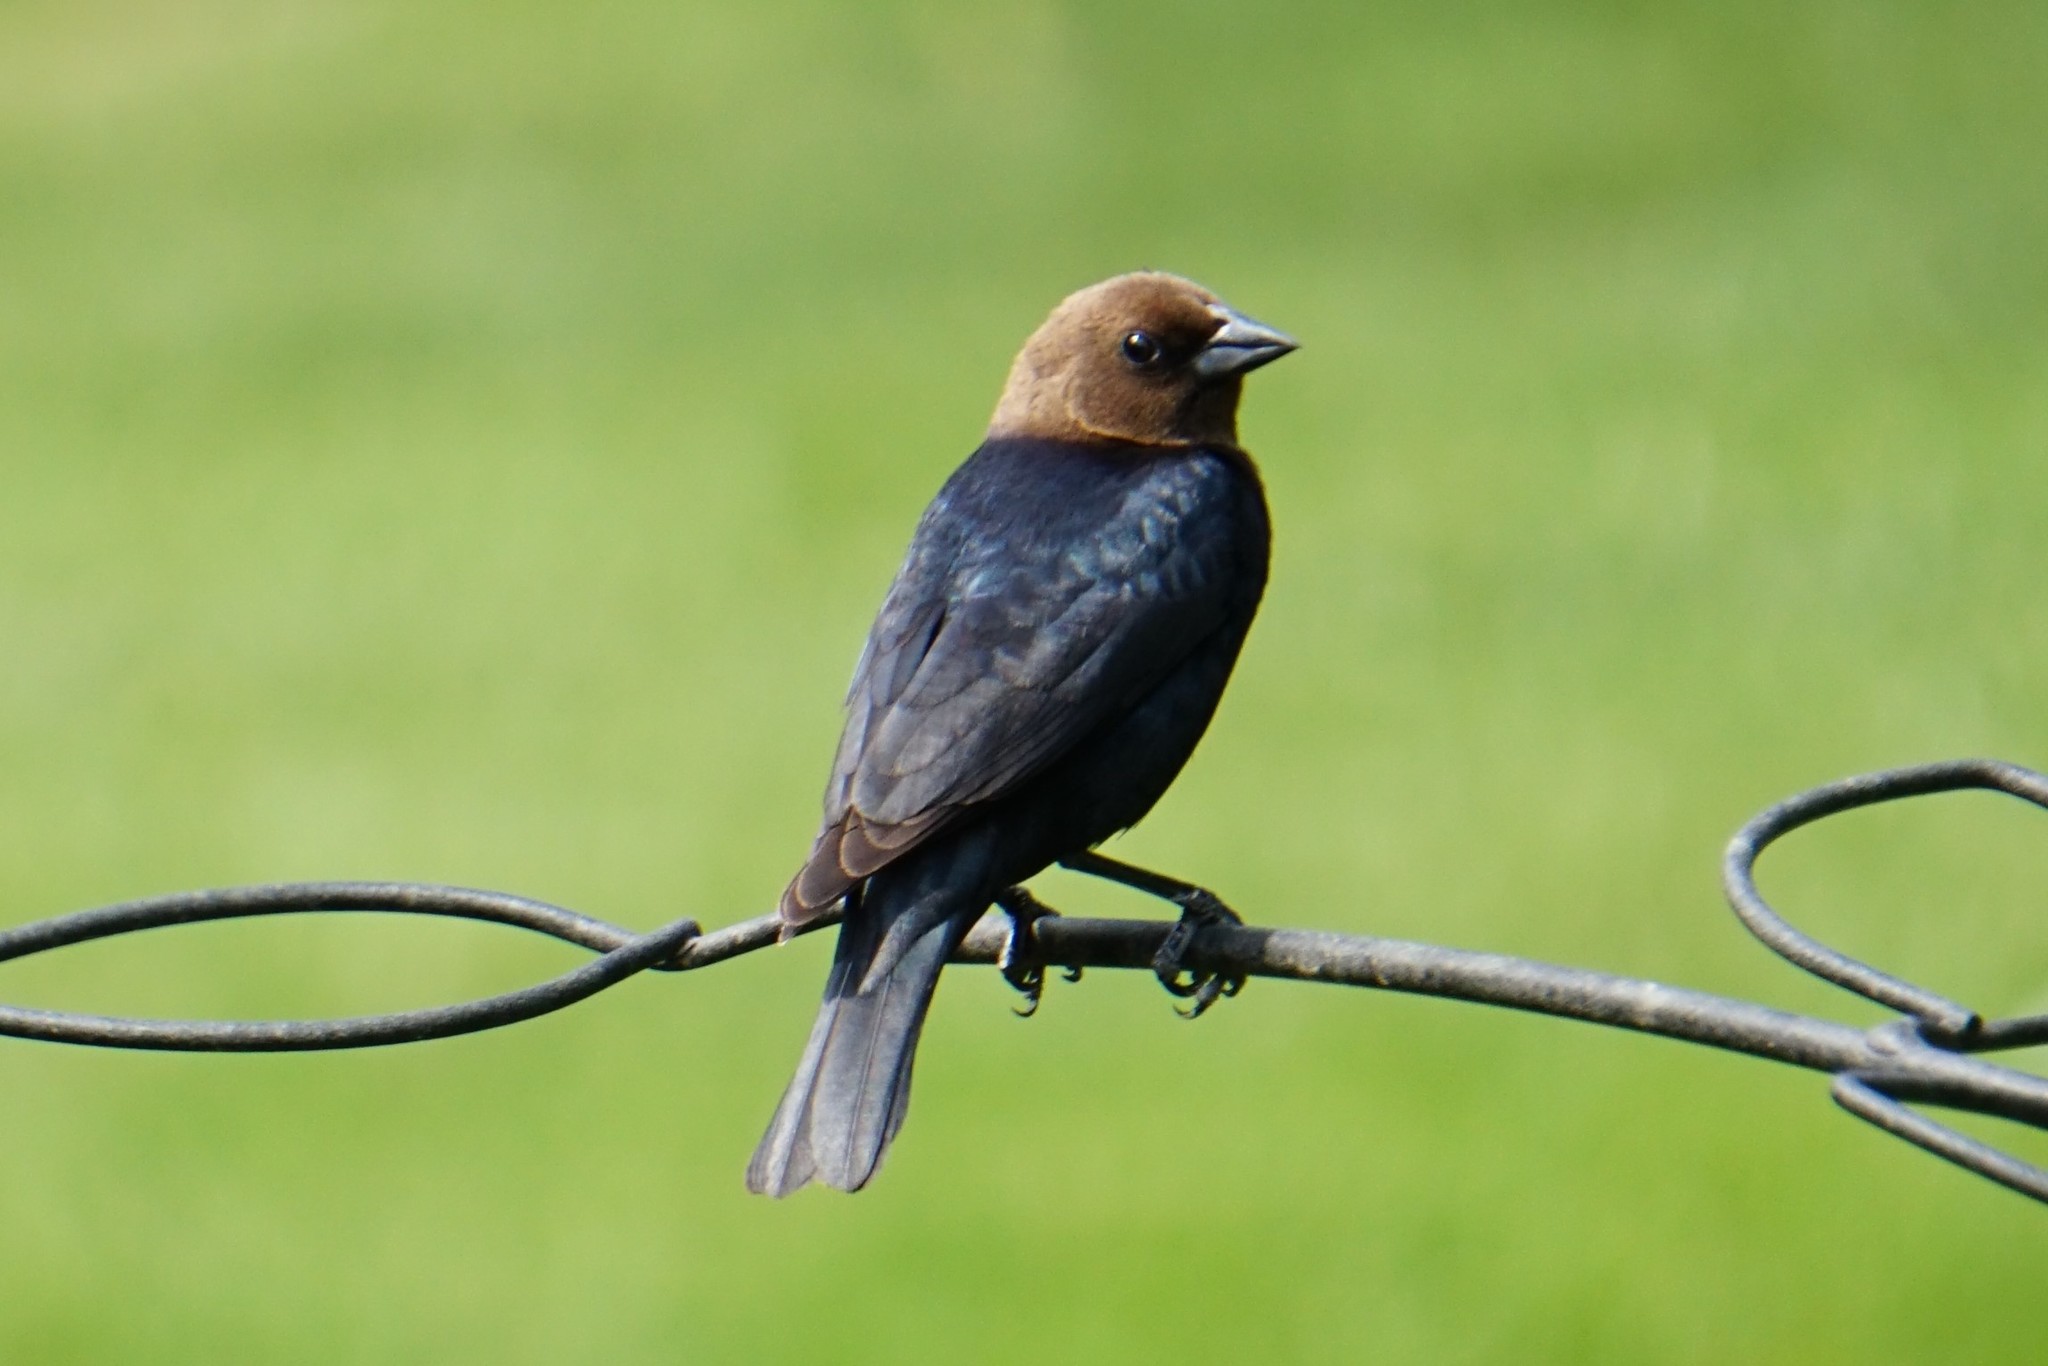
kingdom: Animalia
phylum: Chordata
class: Aves
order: Passeriformes
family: Icteridae
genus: Molothrus
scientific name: Molothrus ater
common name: Brown-headed cowbird
